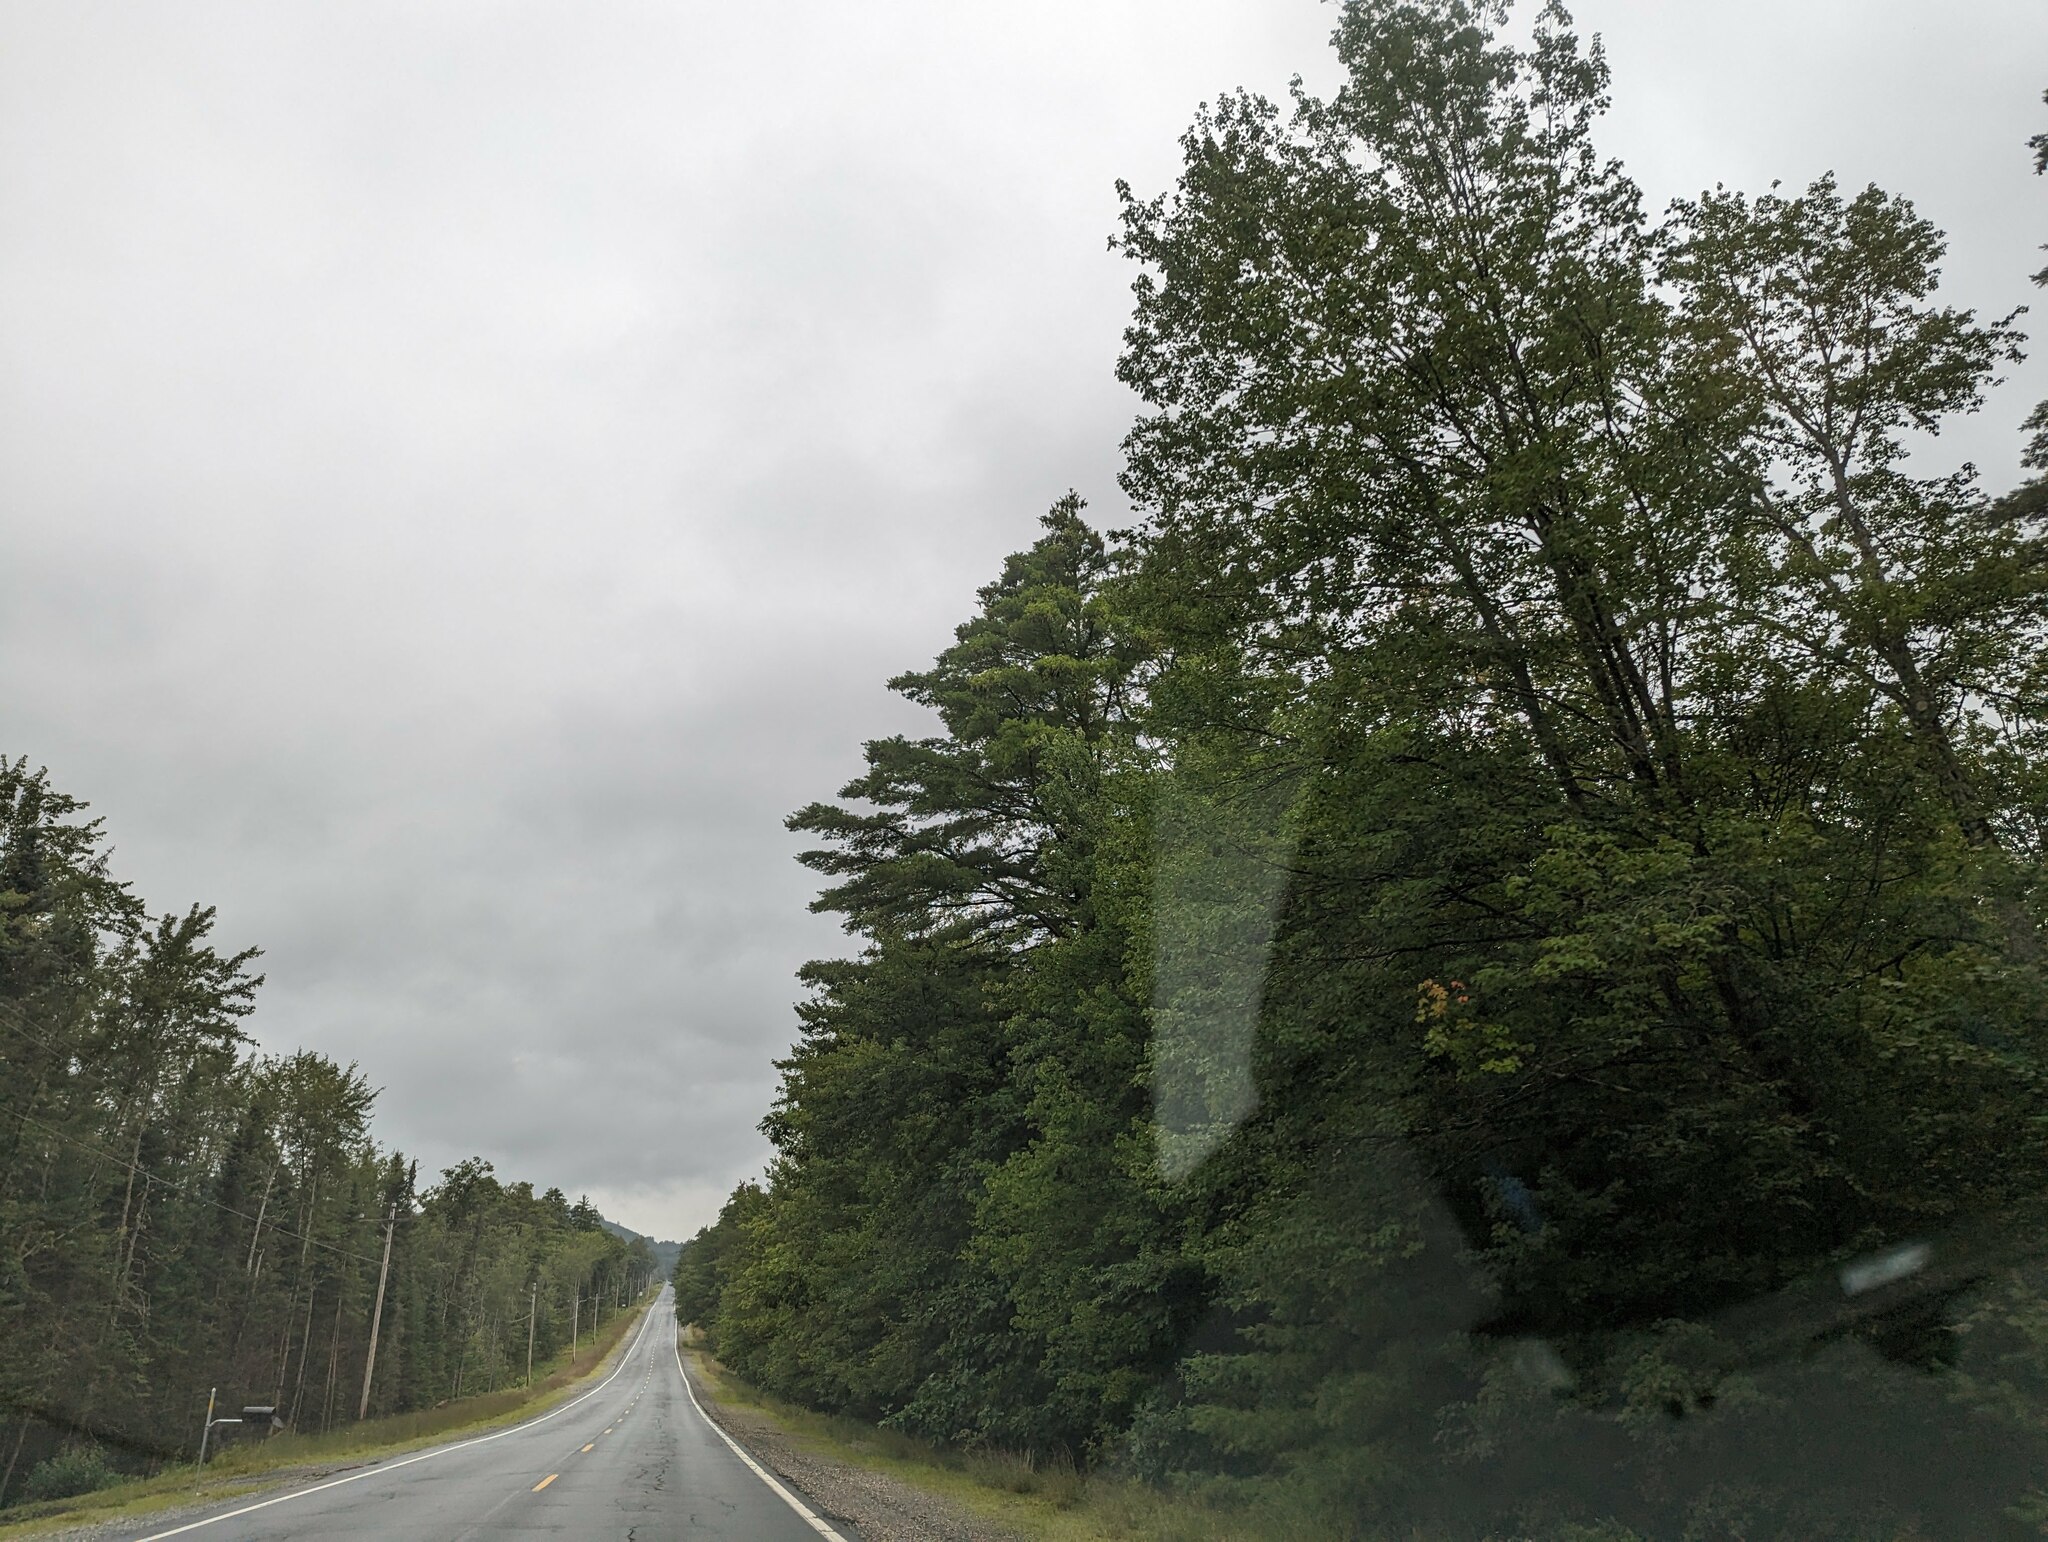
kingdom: Plantae
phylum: Tracheophyta
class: Pinopsida
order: Pinales
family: Pinaceae
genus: Pinus
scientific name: Pinus strobus
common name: Weymouth pine
